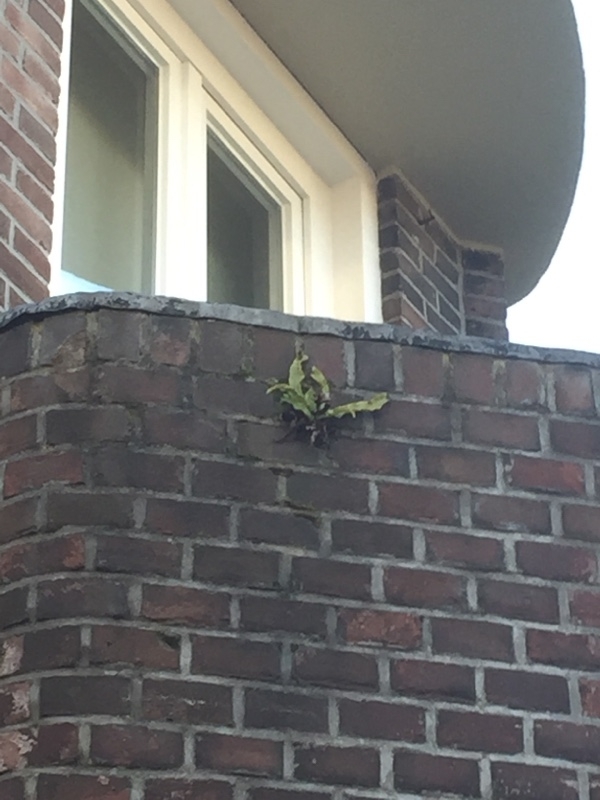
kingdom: Plantae
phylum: Tracheophyta
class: Polypodiopsida
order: Polypodiales
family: Aspleniaceae
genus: Asplenium
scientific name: Asplenium scolopendrium
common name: Hart's-tongue fern
